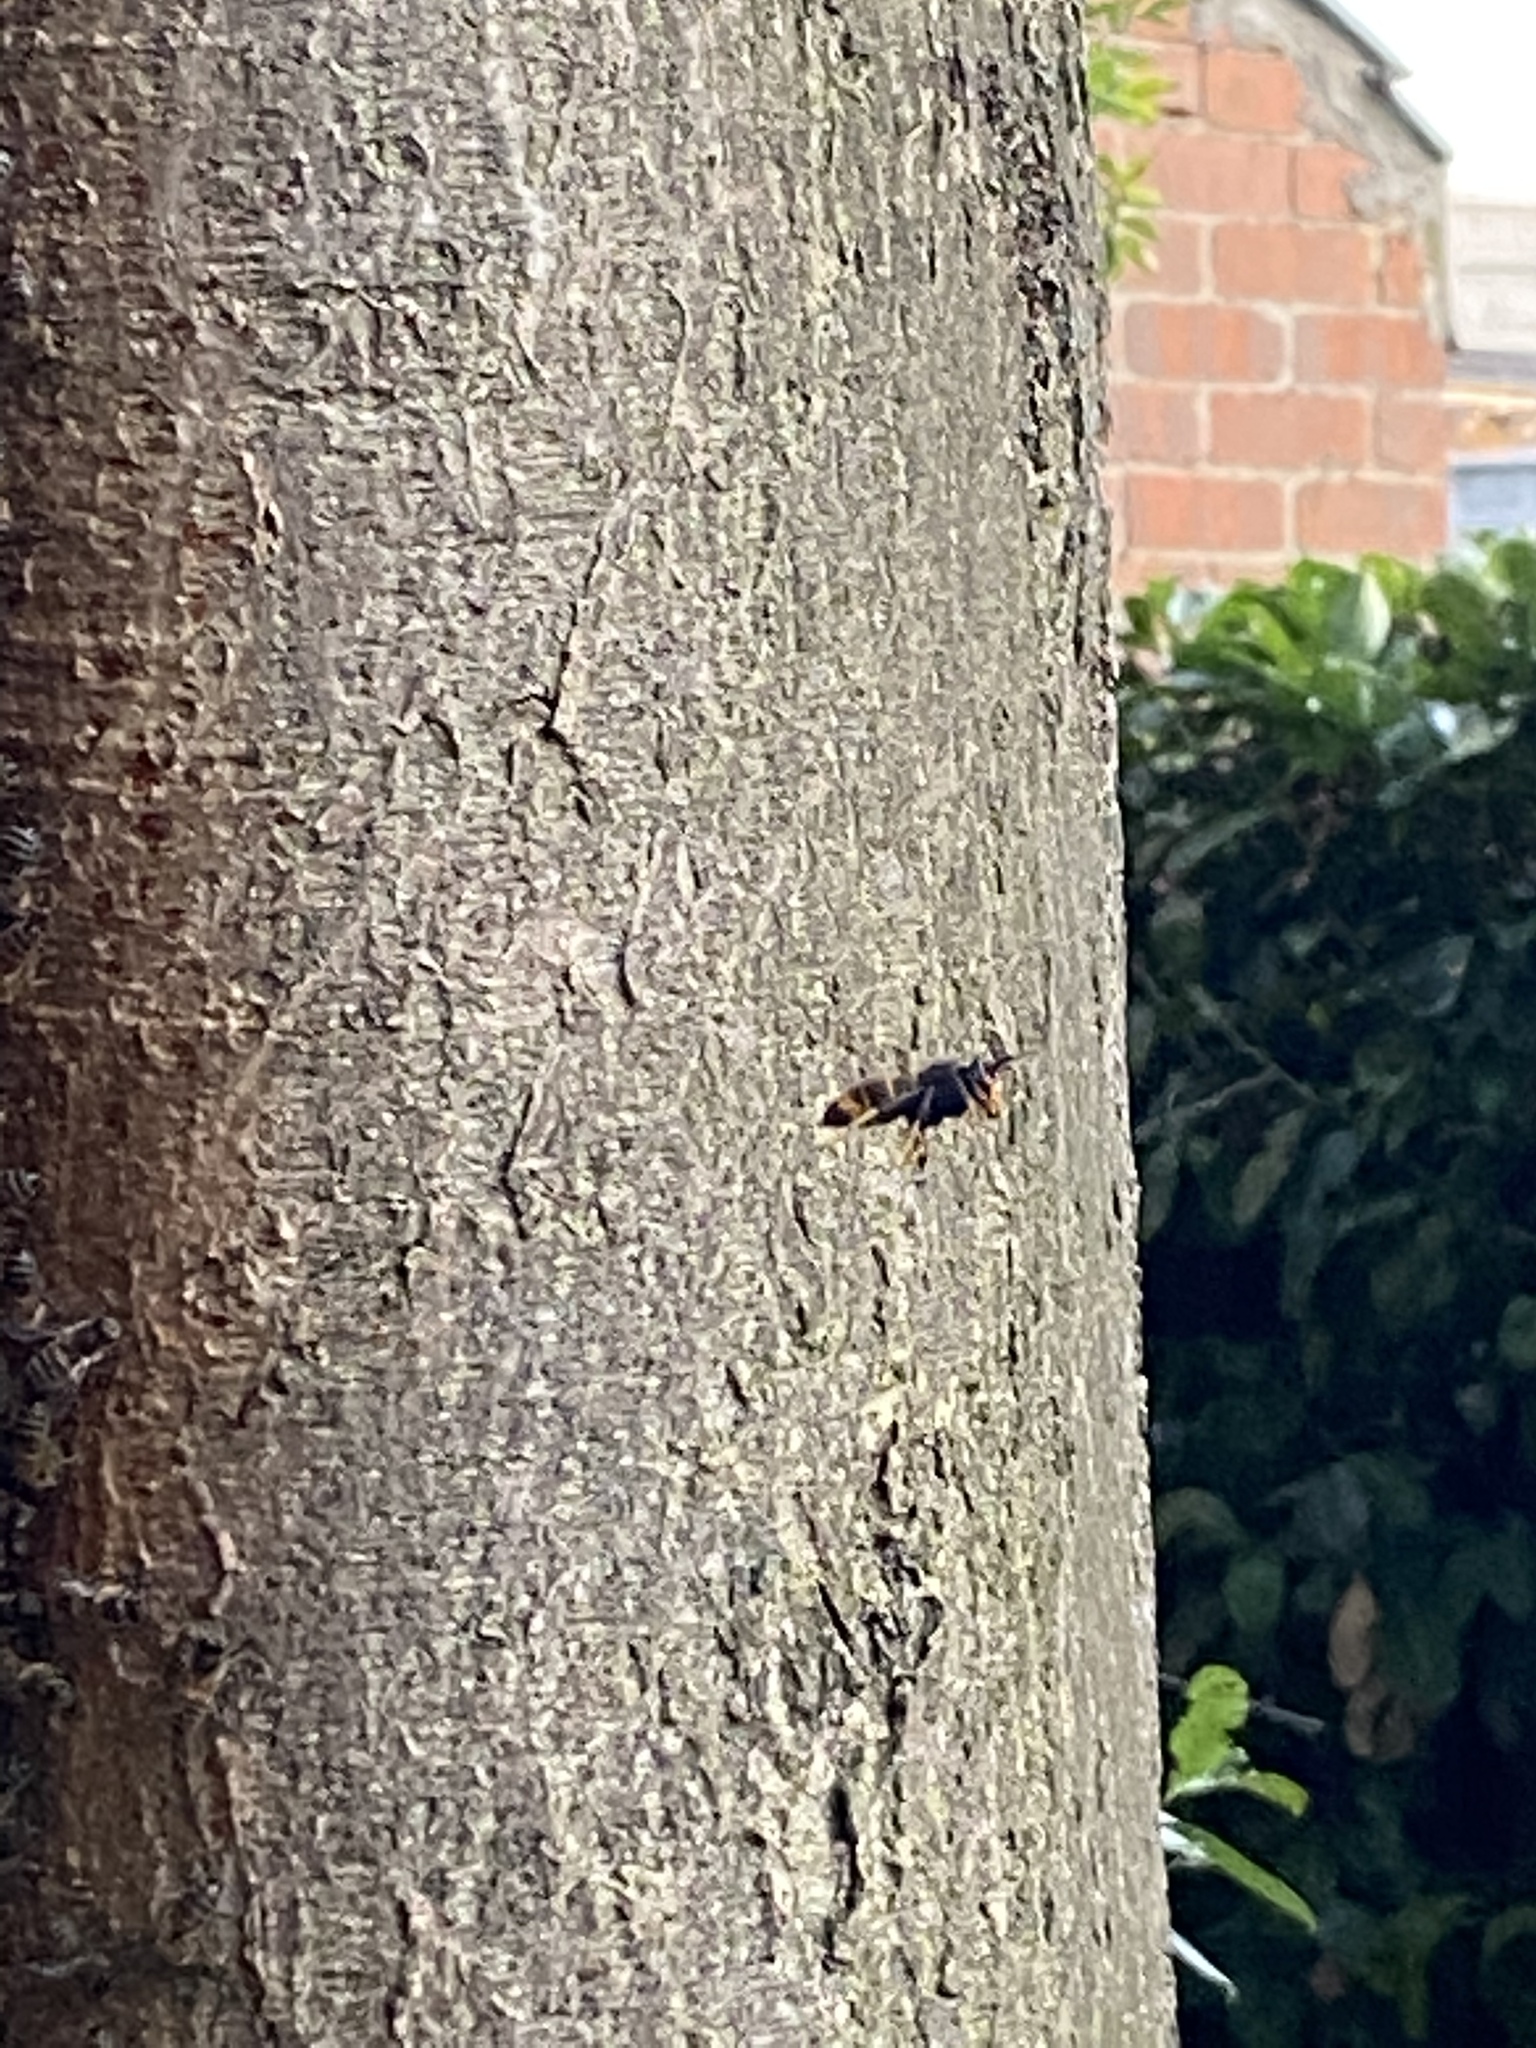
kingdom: Animalia
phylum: Arthropoda
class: Insecta
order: Hymenoptera
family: Vespidae
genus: Vespa
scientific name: Vespa velutina
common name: Asian hornet
